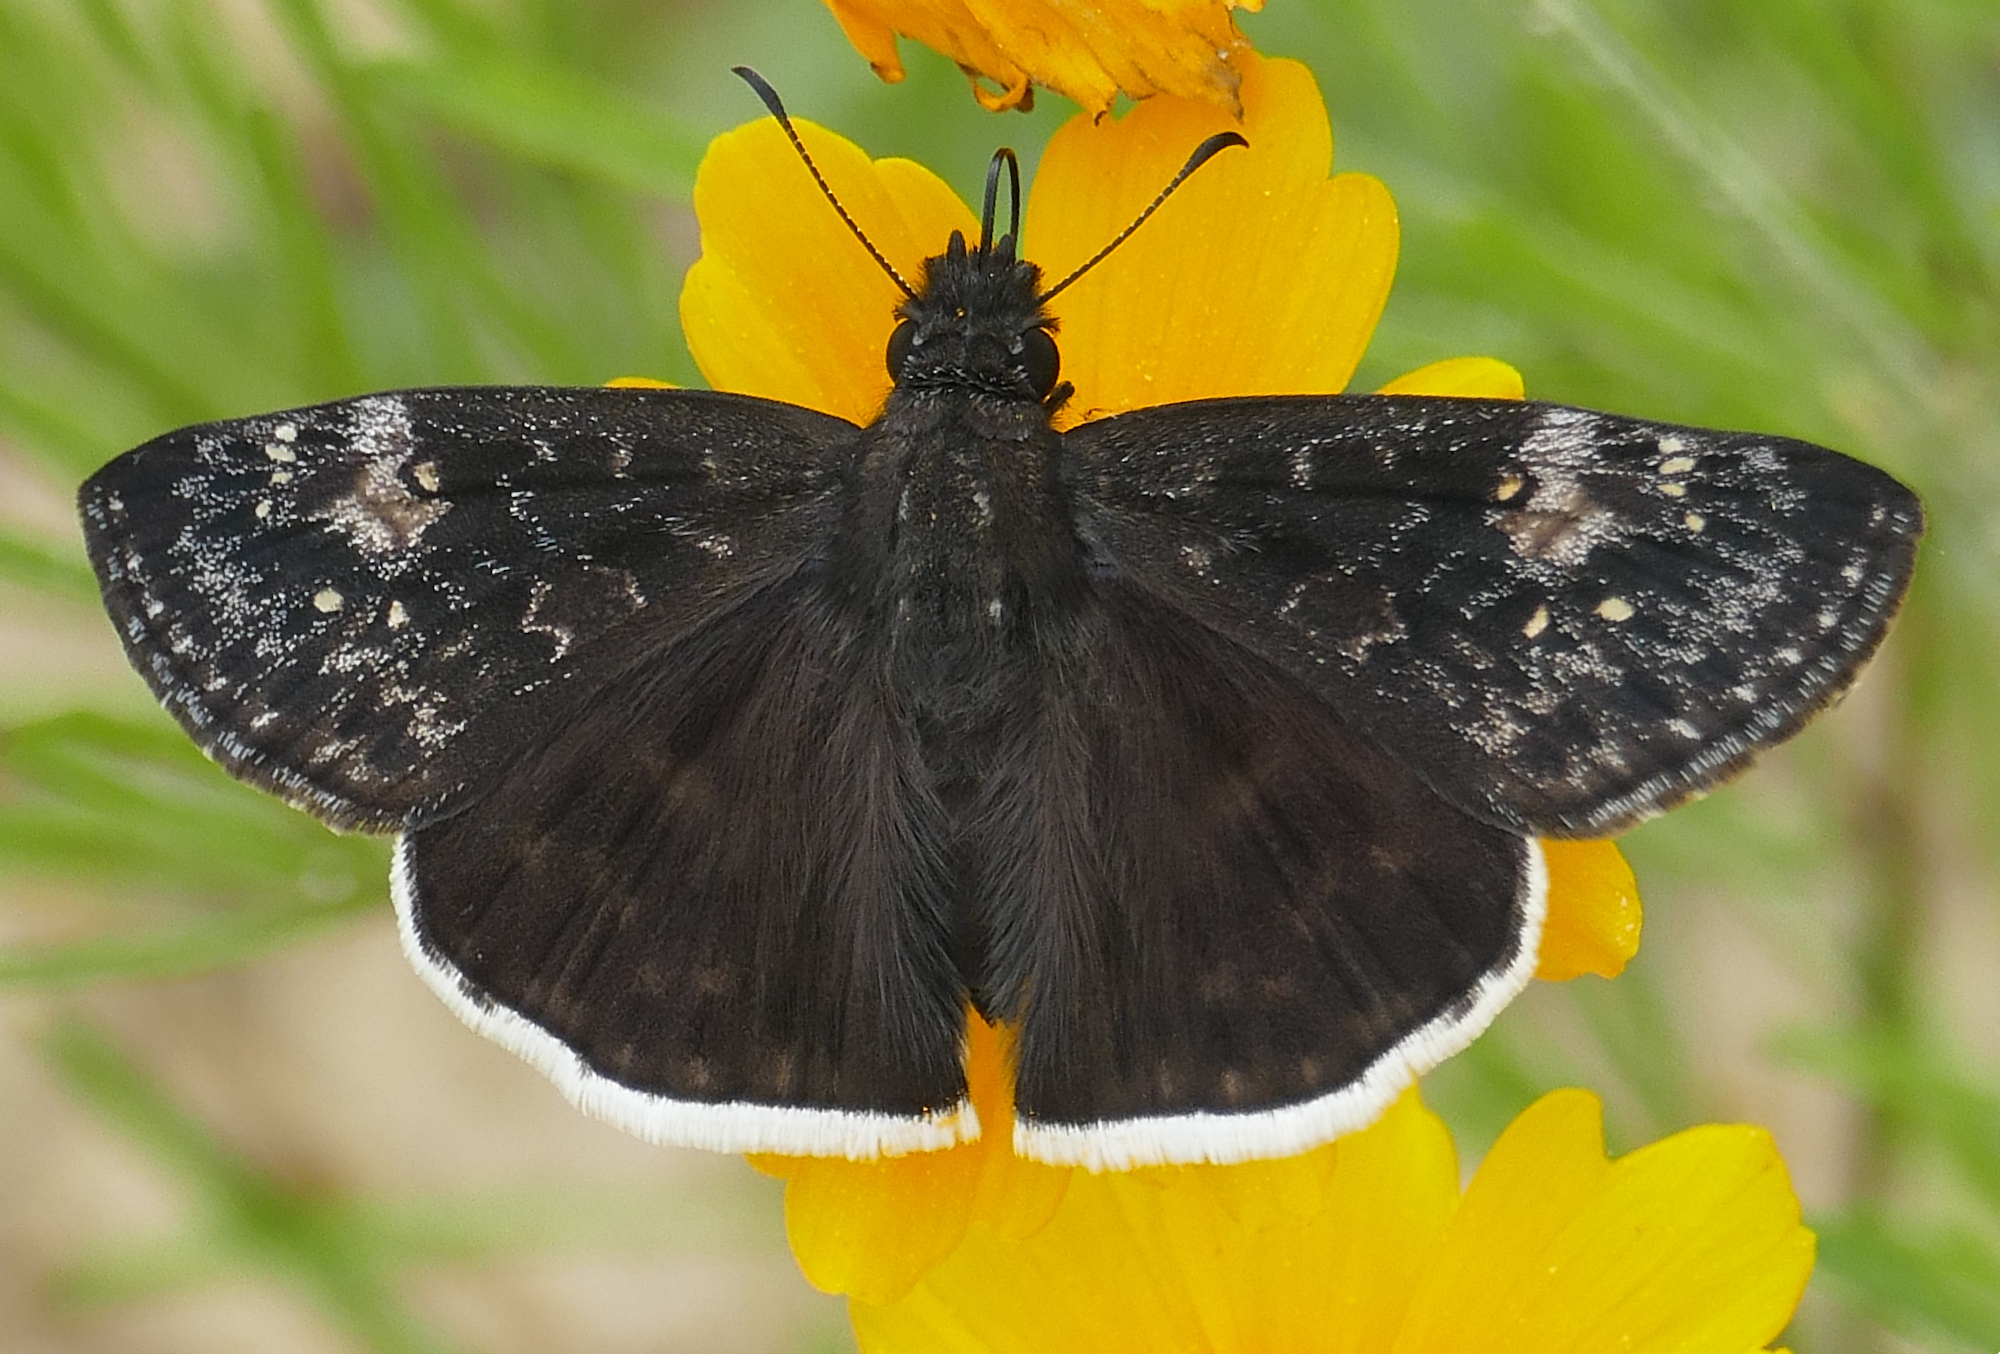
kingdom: Animalia
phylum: Arthropoda
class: Insecta
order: Lepidoptera
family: Hesperiidae
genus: Erynnis
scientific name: Erynnis funeralis
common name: Funereal duskywing
